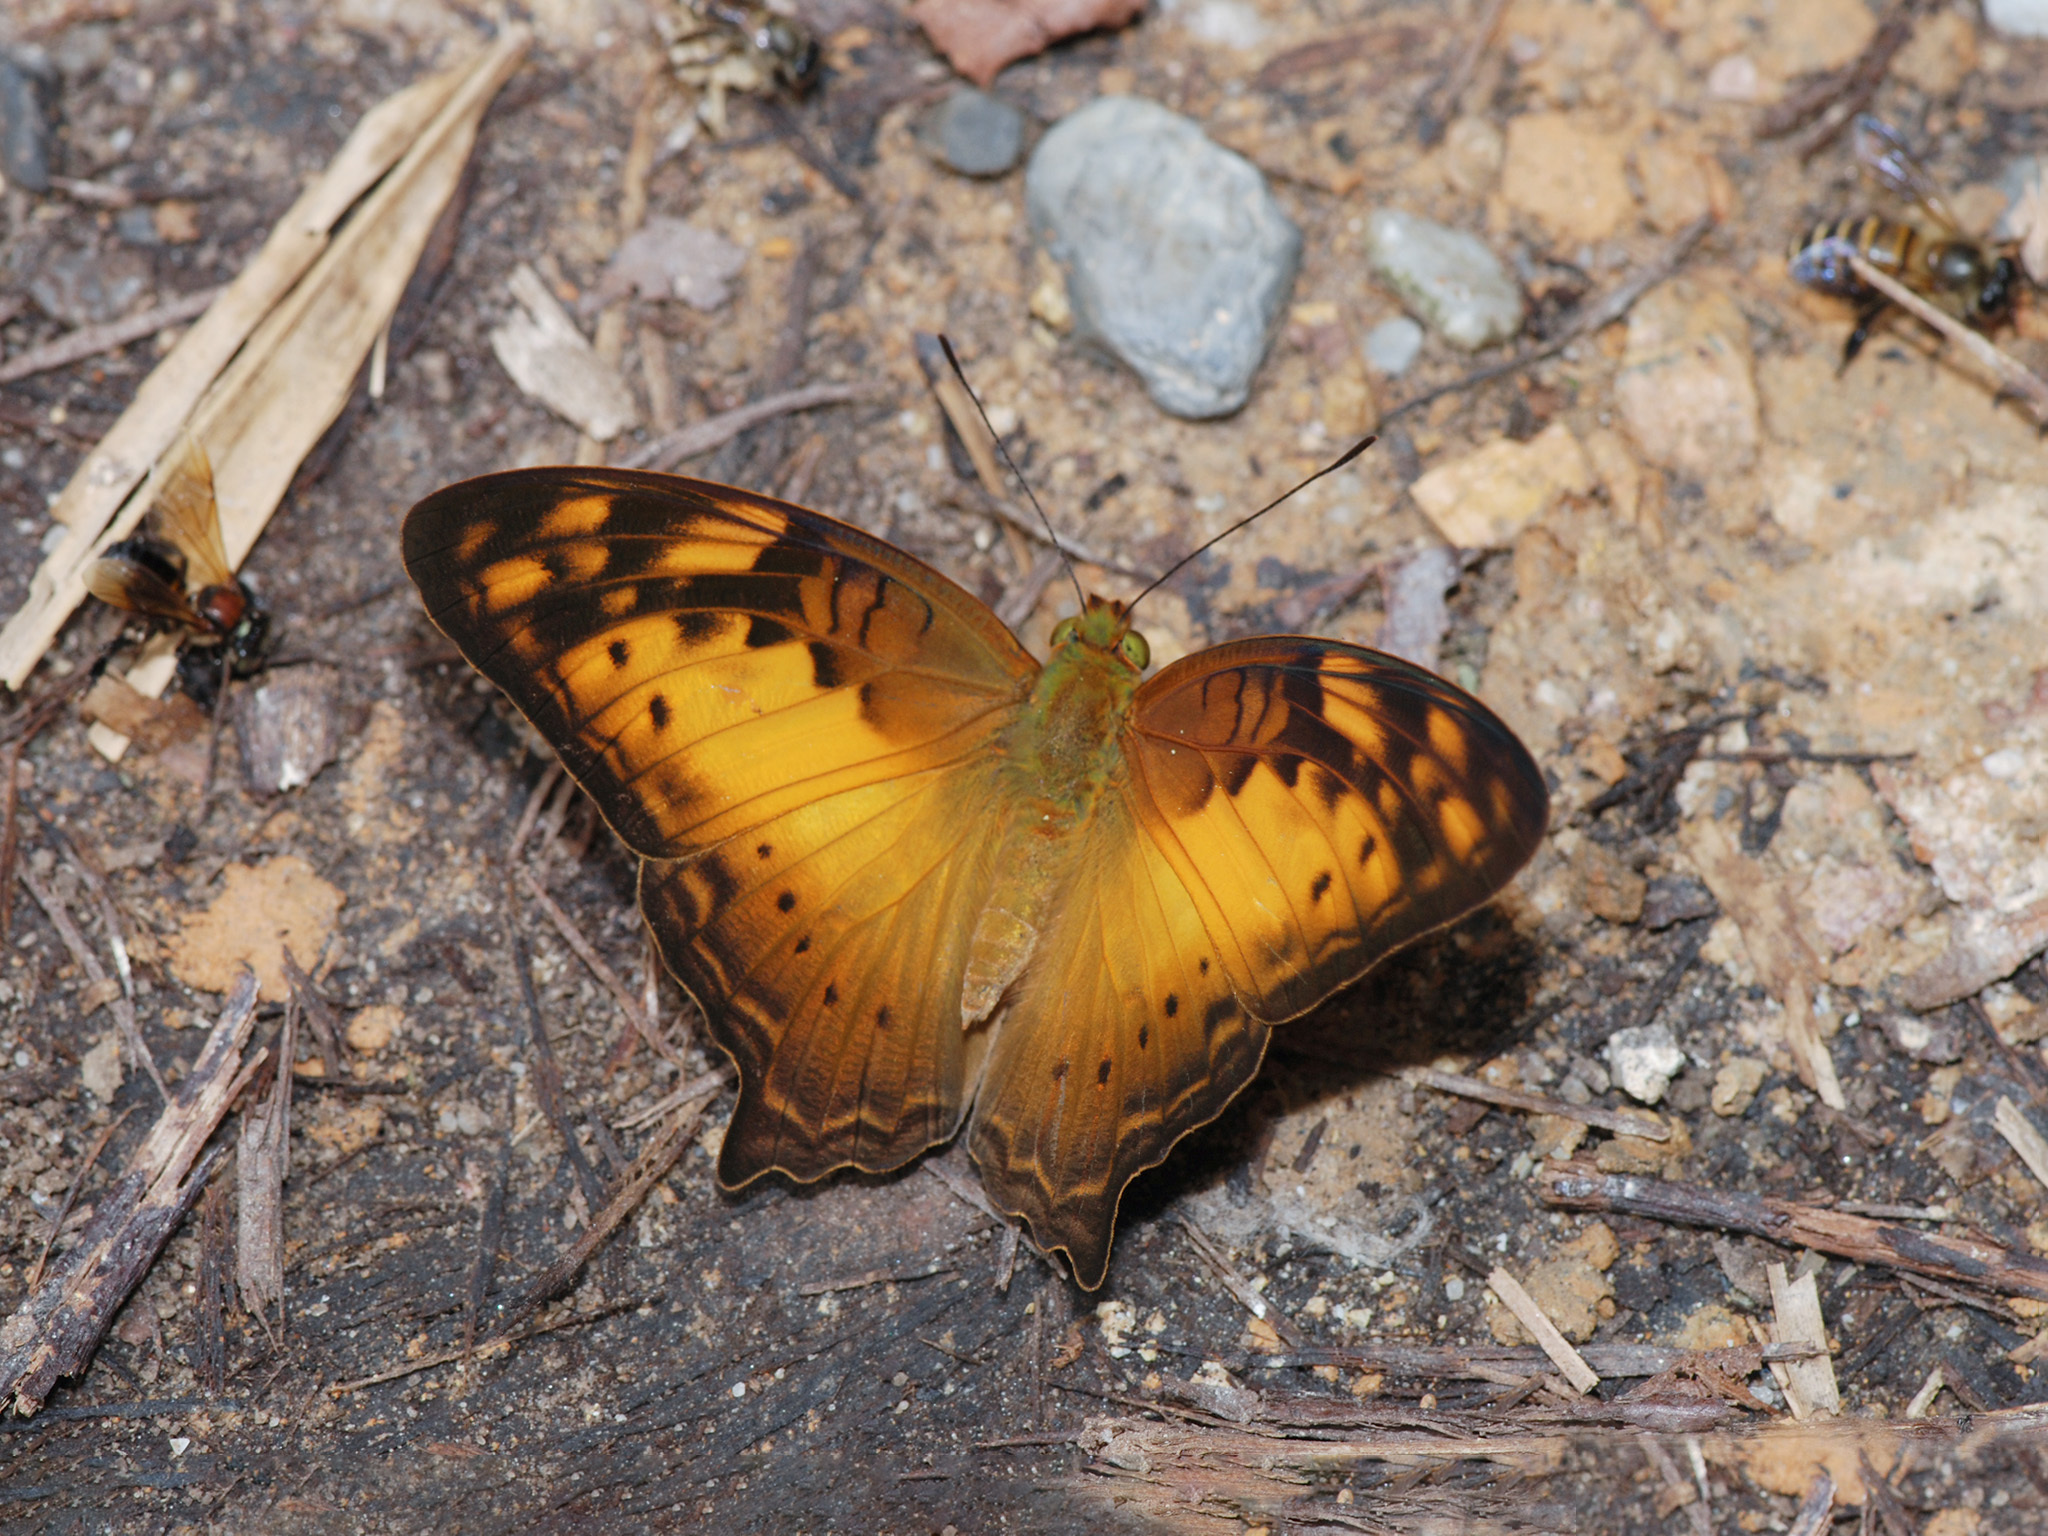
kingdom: Animalia
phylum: Arthropoda
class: Insecta
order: Lepidoptera
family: Nymphalidae
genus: Vagrans
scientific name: Vagrans sinha
